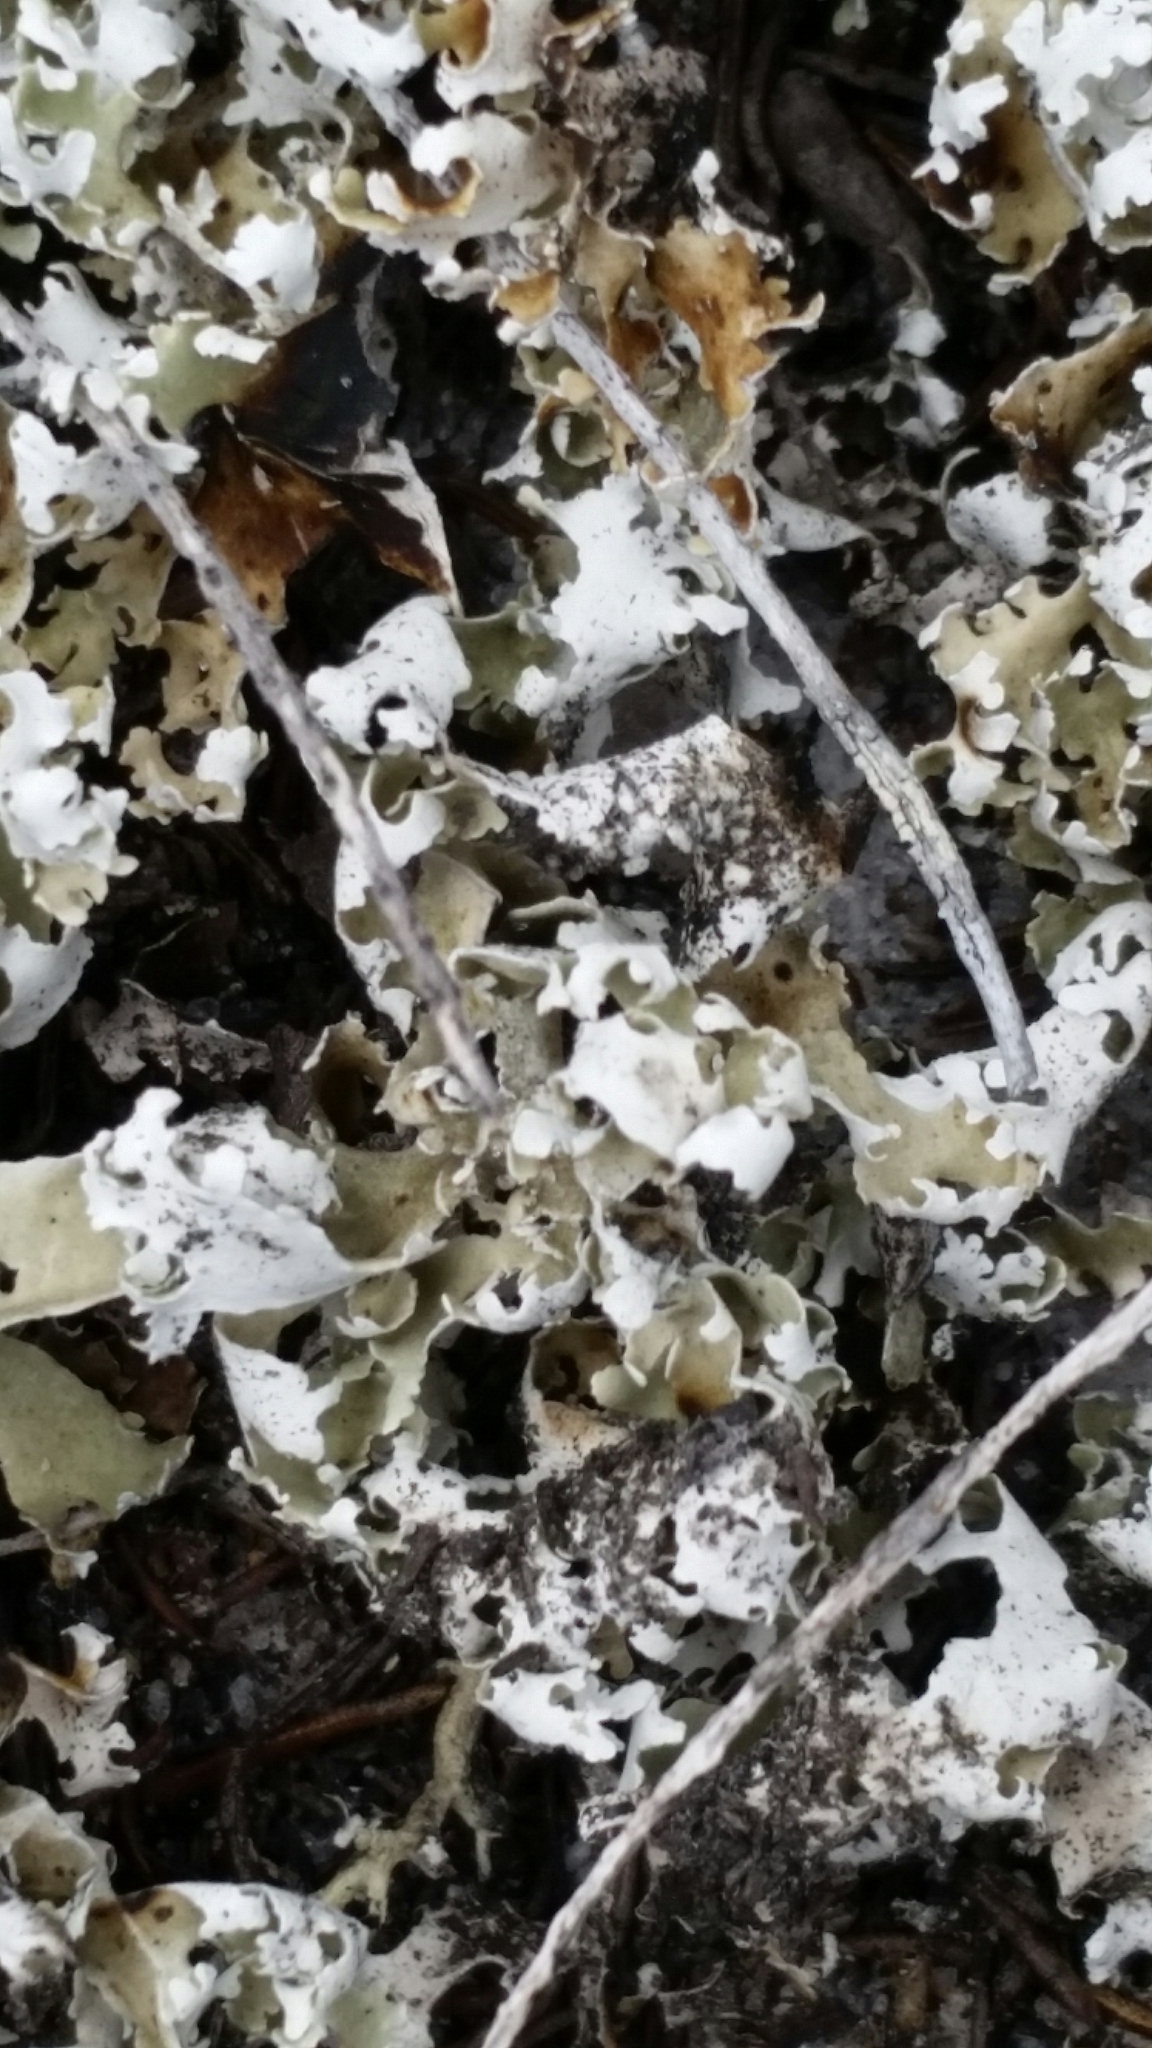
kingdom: Fungi
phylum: Ascomycota
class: Lecanoromycetes
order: Lecanorales
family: Cladoniaceae
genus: Cladonia
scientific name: Cladonia prostrata
